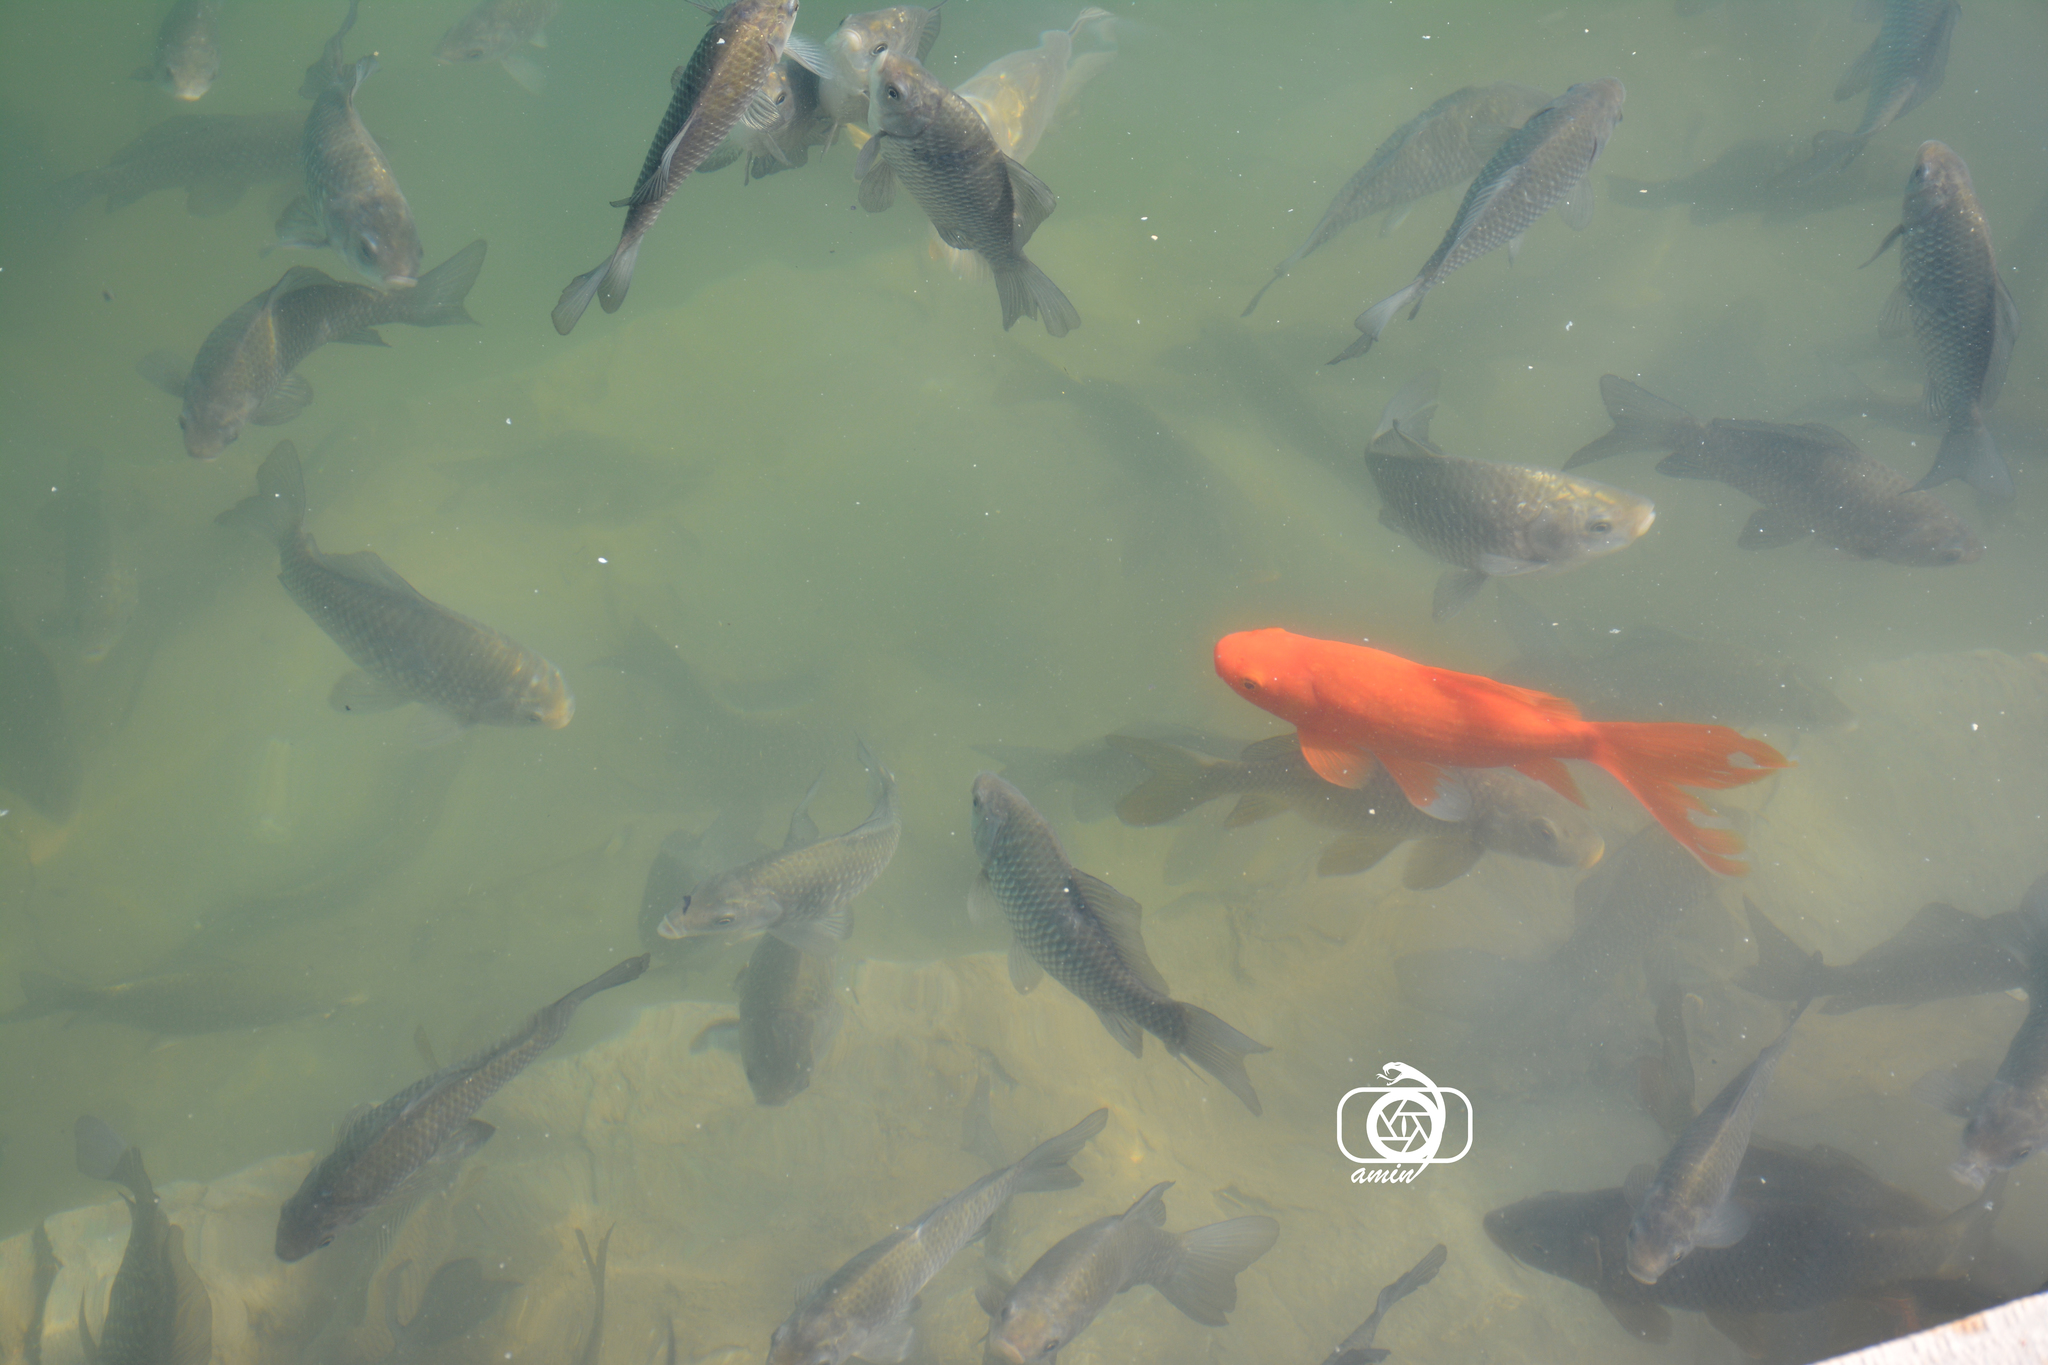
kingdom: Animalia
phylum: Chordata
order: Cypriniformes
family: Cyprinidae
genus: Carassius
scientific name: Carassius auratus
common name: Goldfish
